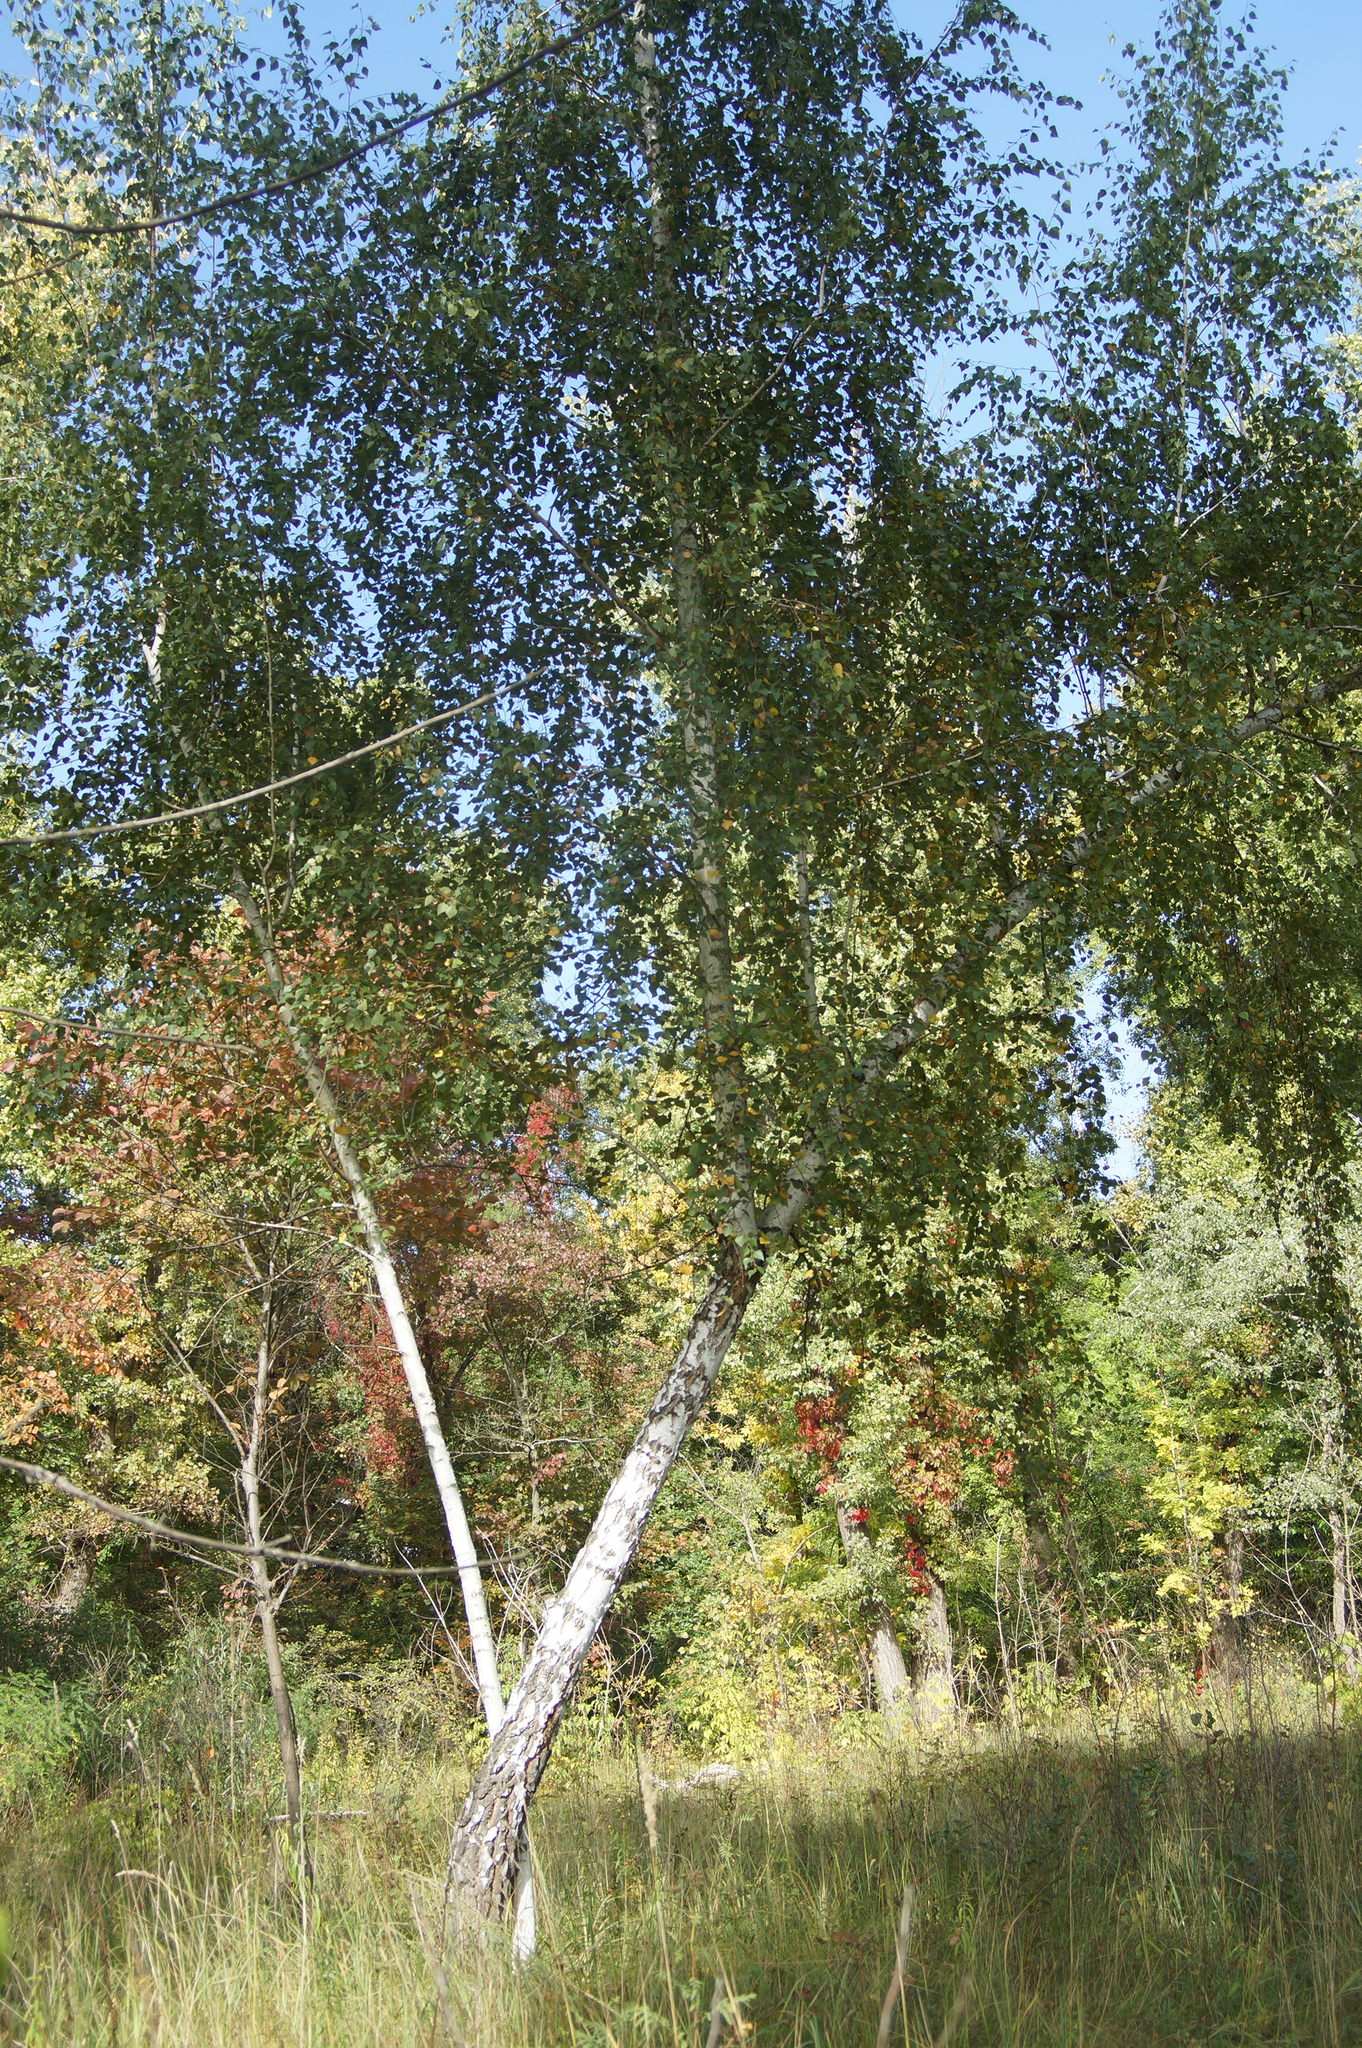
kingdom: Plantae
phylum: Tracheophyta
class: Magnoliopsida
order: Fagales
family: Betulaceae
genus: Betula
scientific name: Betula pendula
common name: Silver birch
